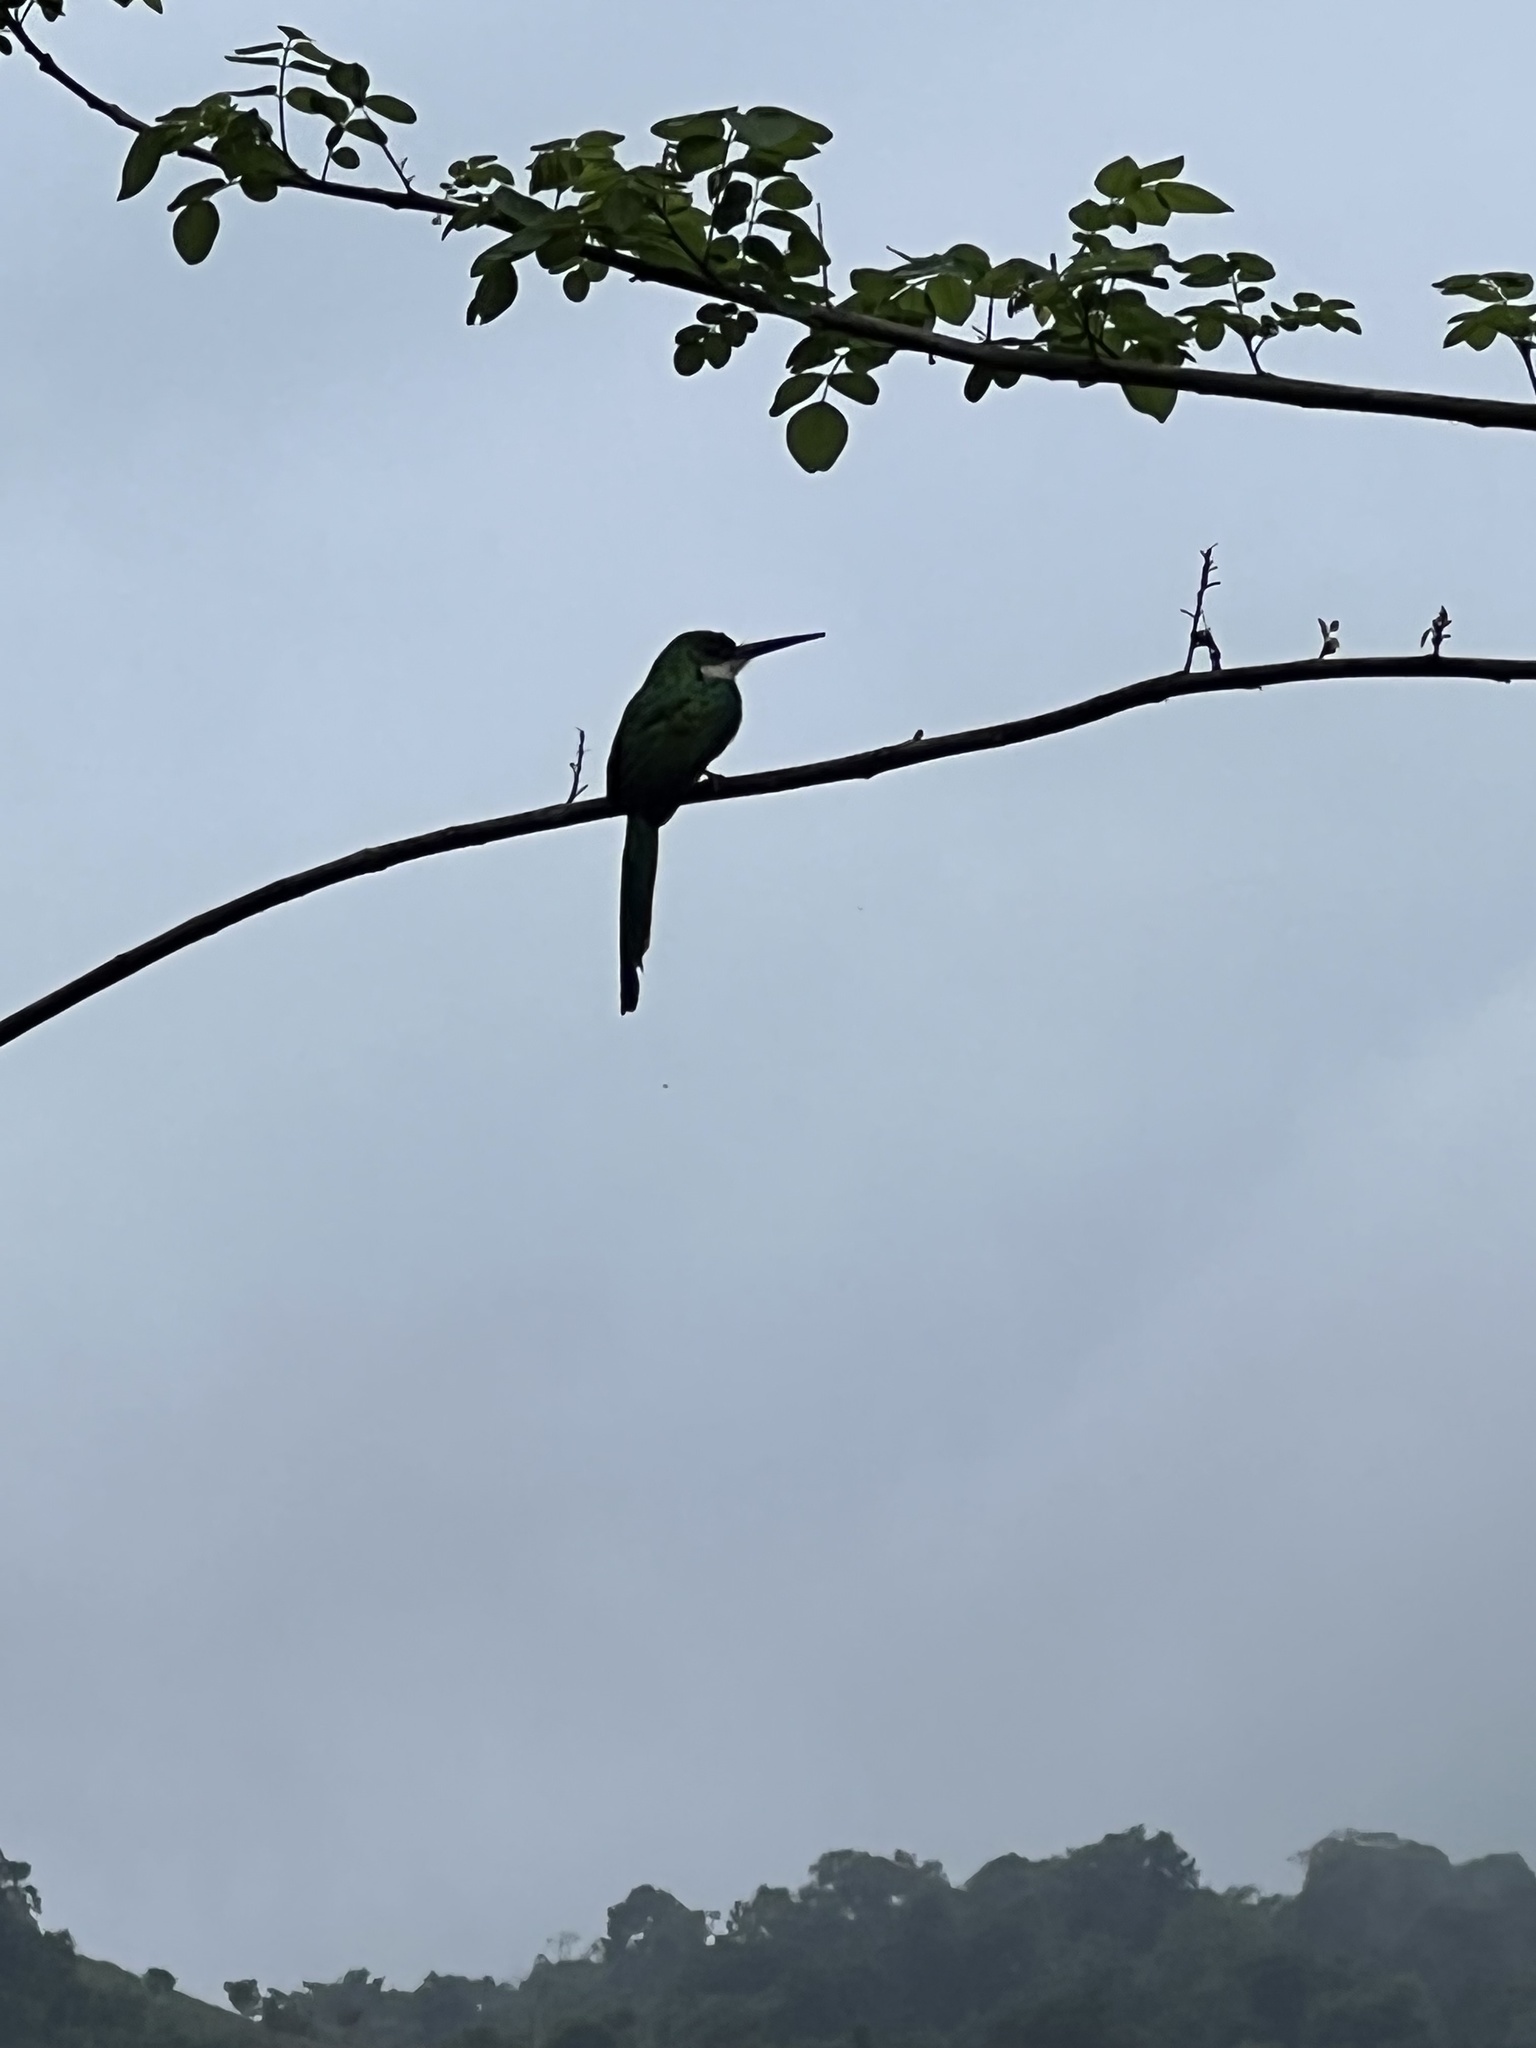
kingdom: Animalia
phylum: Chordata
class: Aves
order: Piciformes
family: Galbulidae
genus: Galbula
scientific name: Galbula ruficauda
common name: Rufous-tailed jacamar
